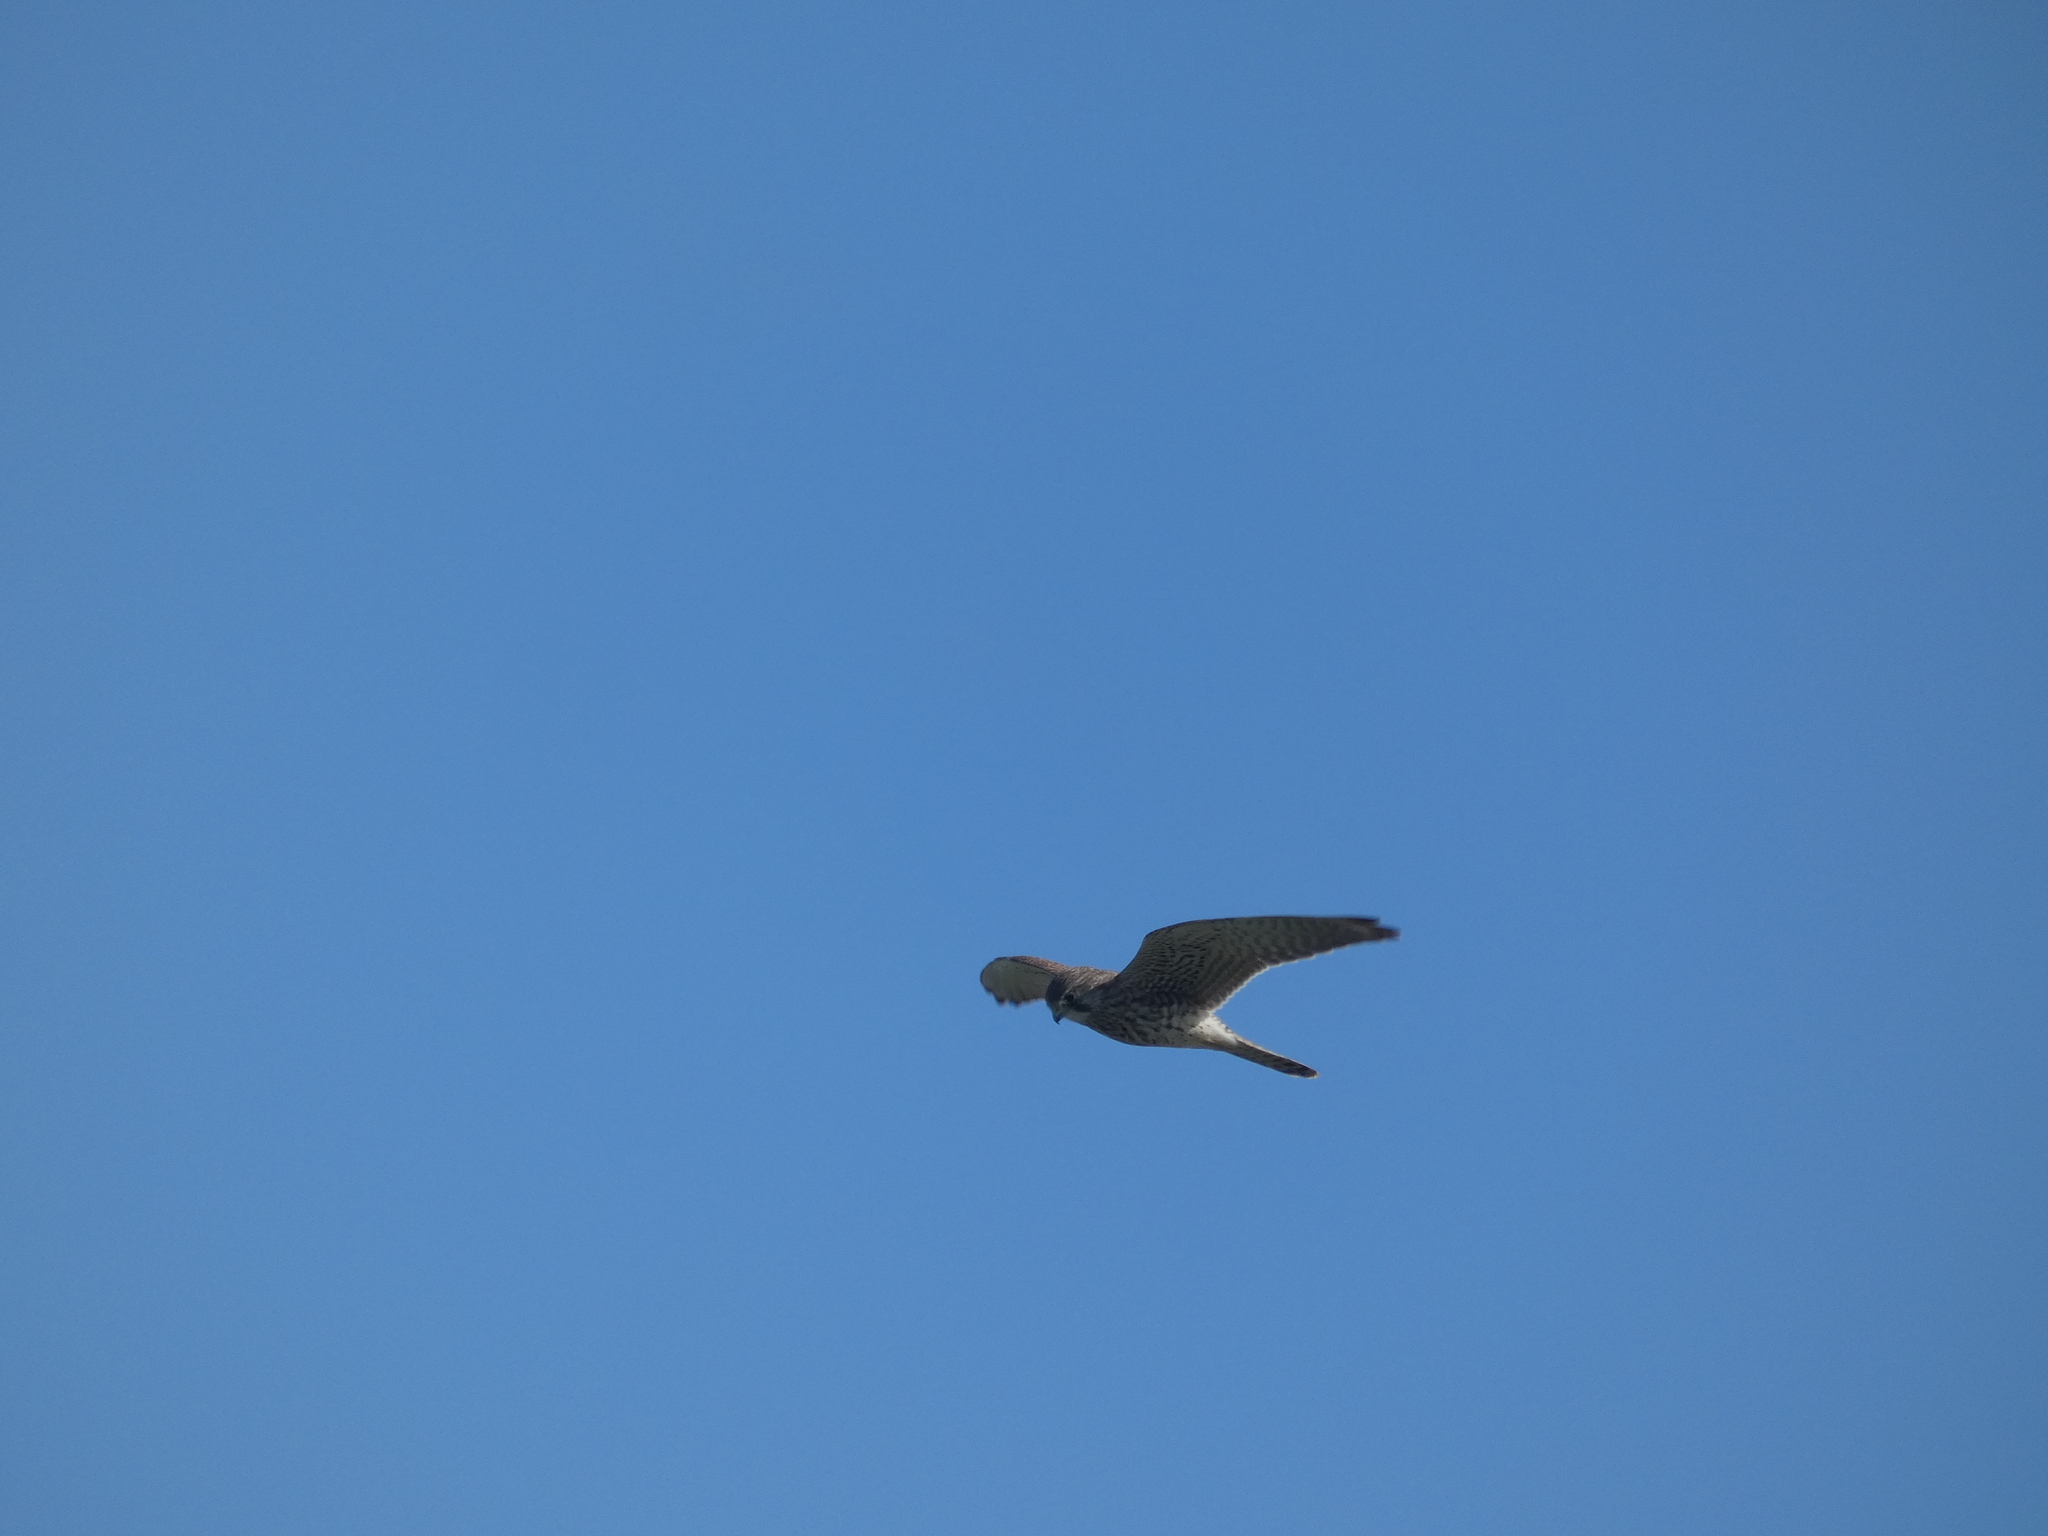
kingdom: Animalia
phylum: Chordata
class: Aves
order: Falconiformes
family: Falconidae
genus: Falco
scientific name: Falco tinnunculus
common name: Common kestrel
